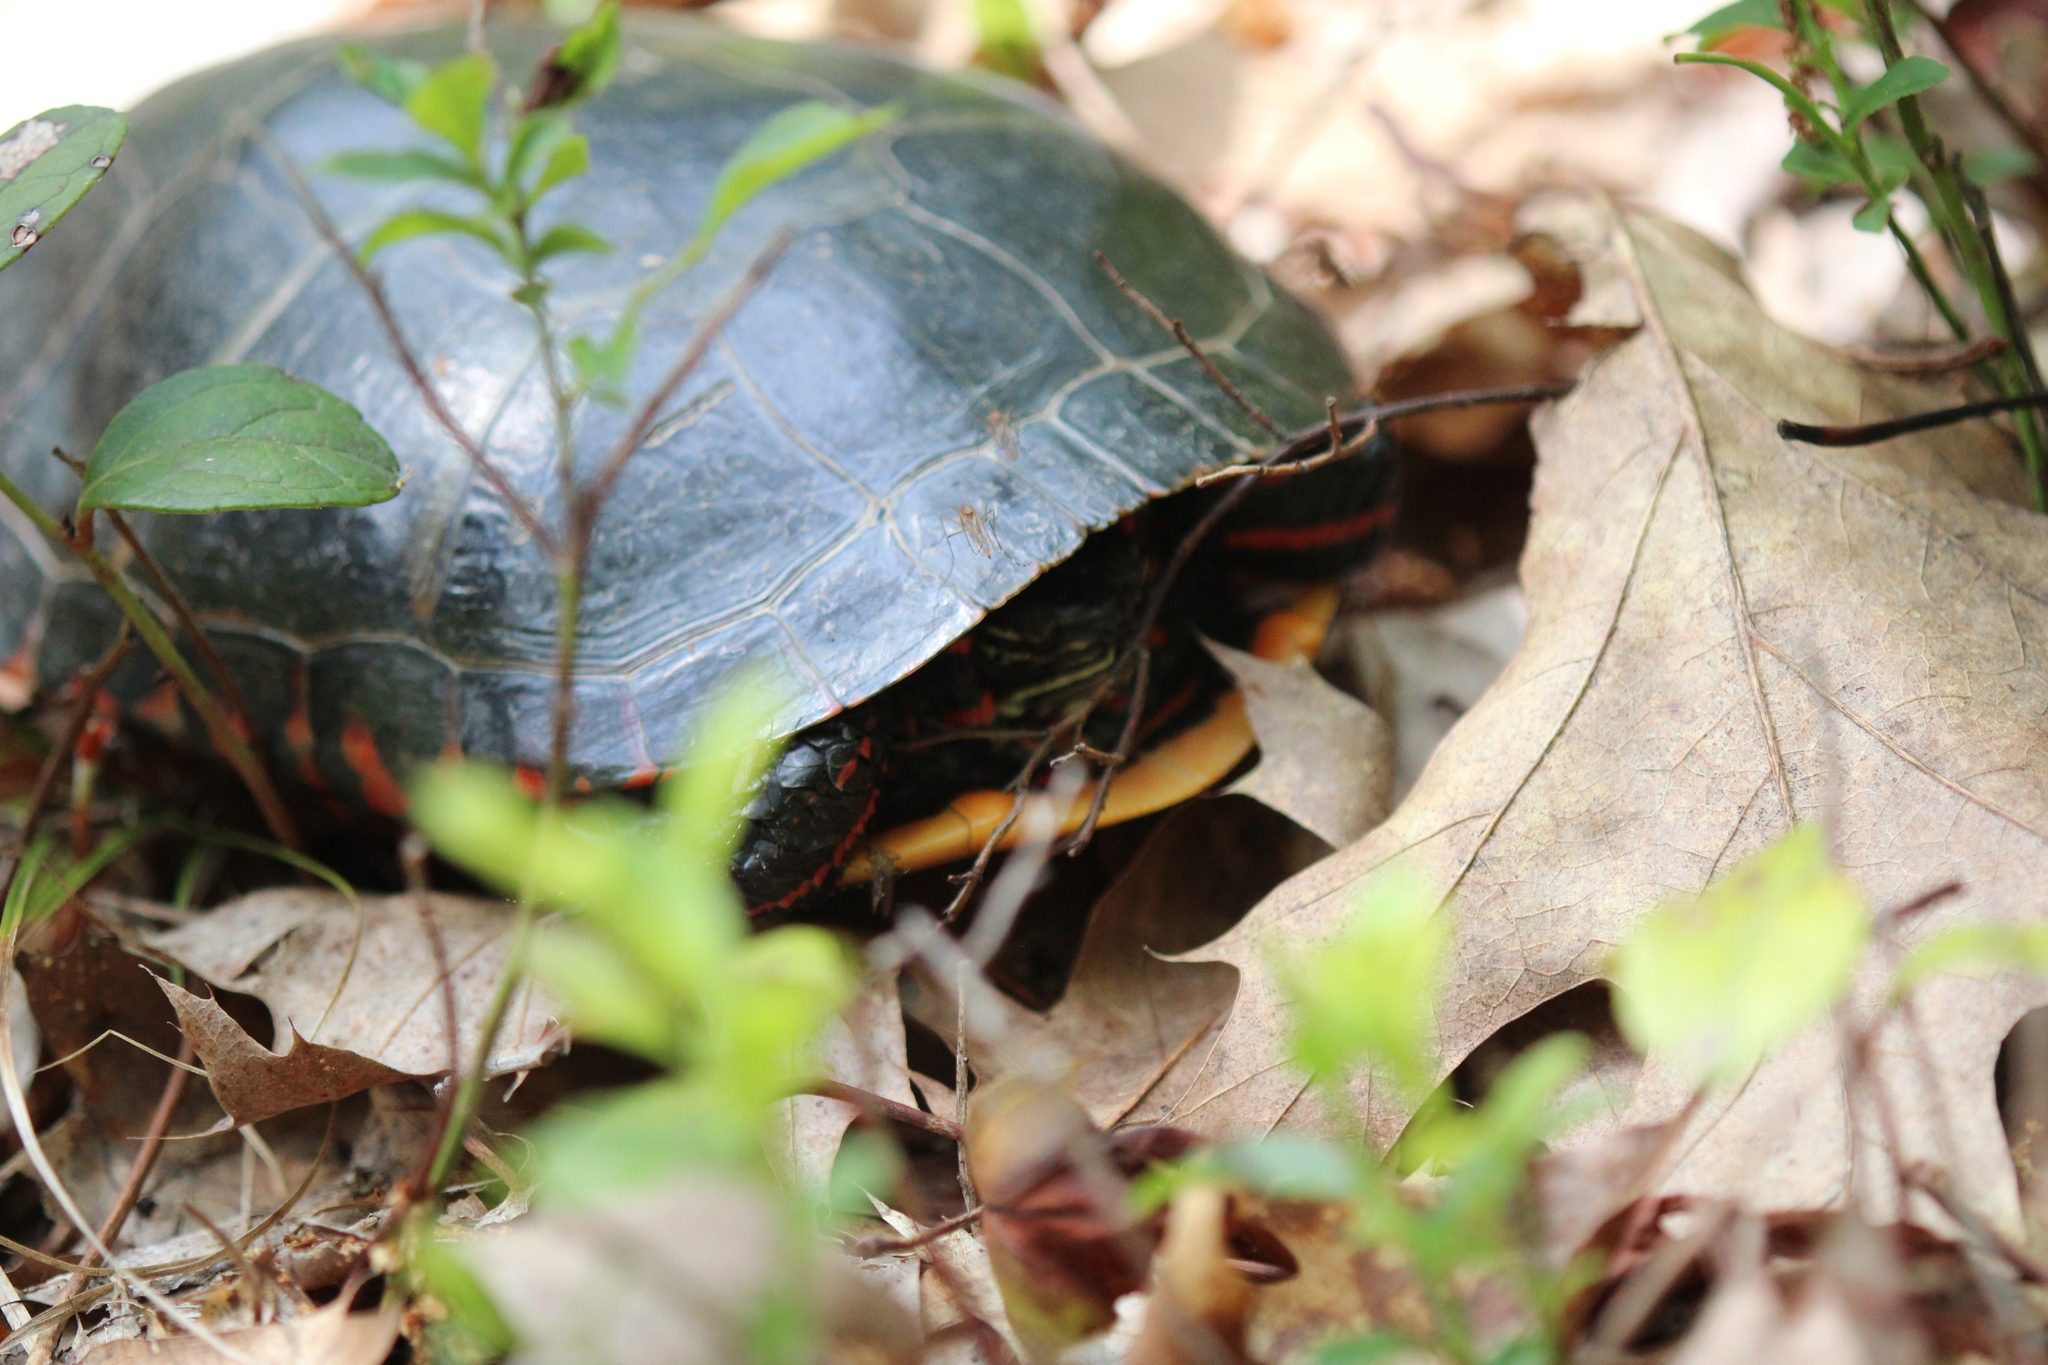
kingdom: Animalia
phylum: Chordata
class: Testudines
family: Emydidae
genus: Chrysemys
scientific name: Chrysemys picta
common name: Painted turtle
